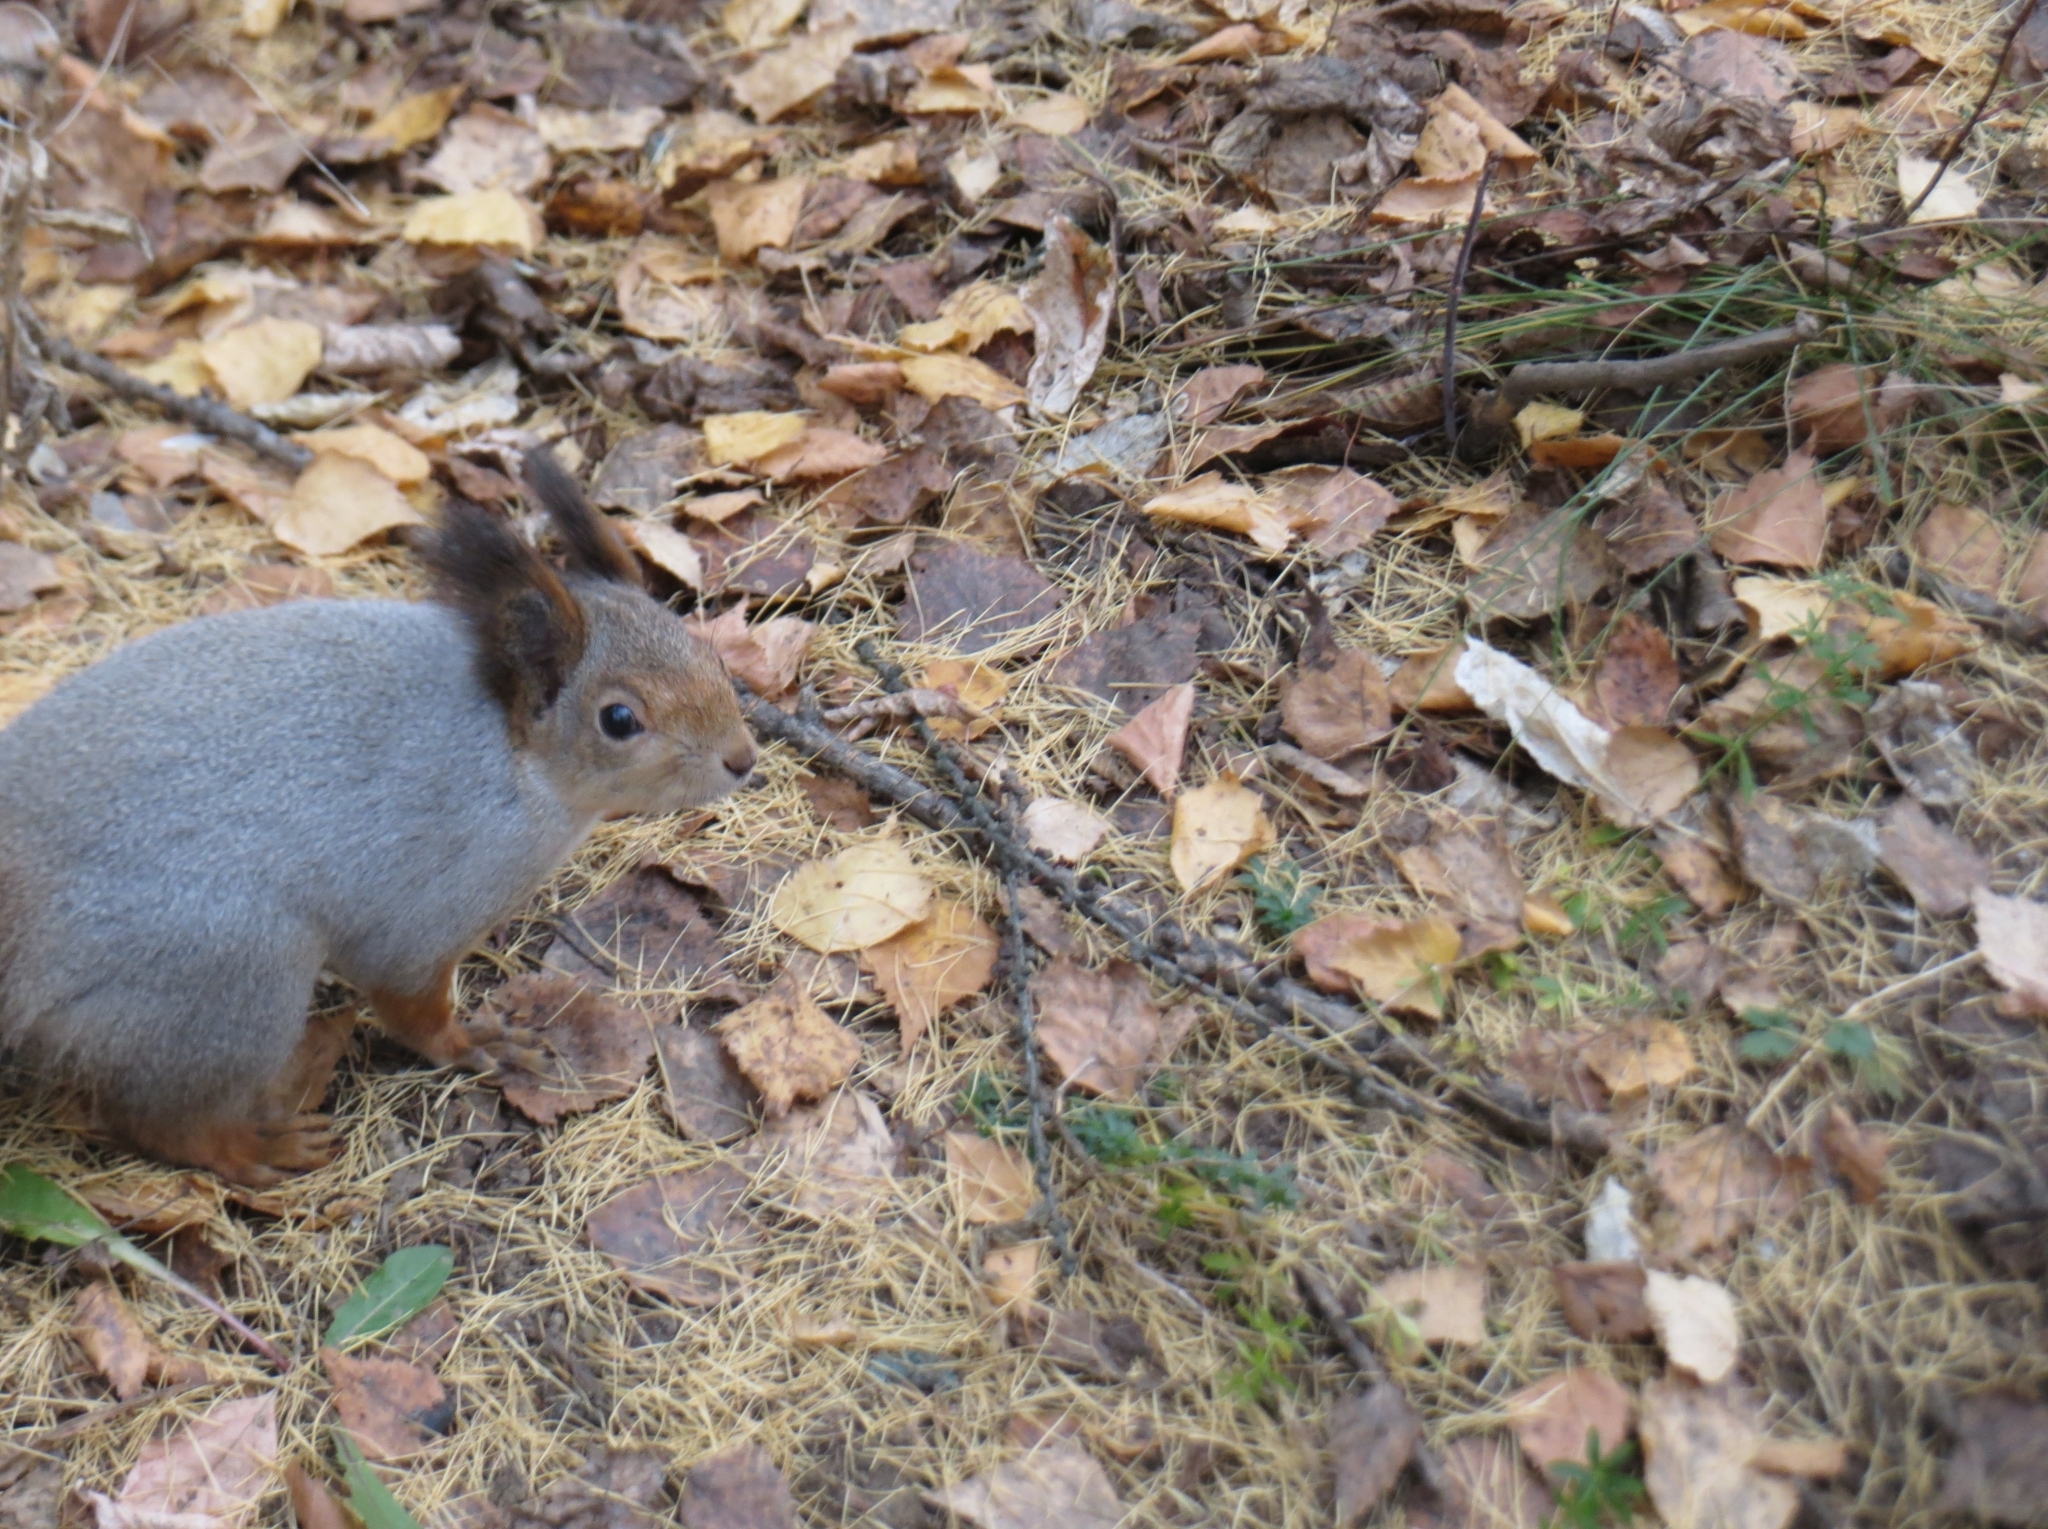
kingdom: Animalia
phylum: Chordata
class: Mammalia
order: Rodentia
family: Sciuridae
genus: Sciurus
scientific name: Sciurus vulgaris
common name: Eurasian red squirrel
